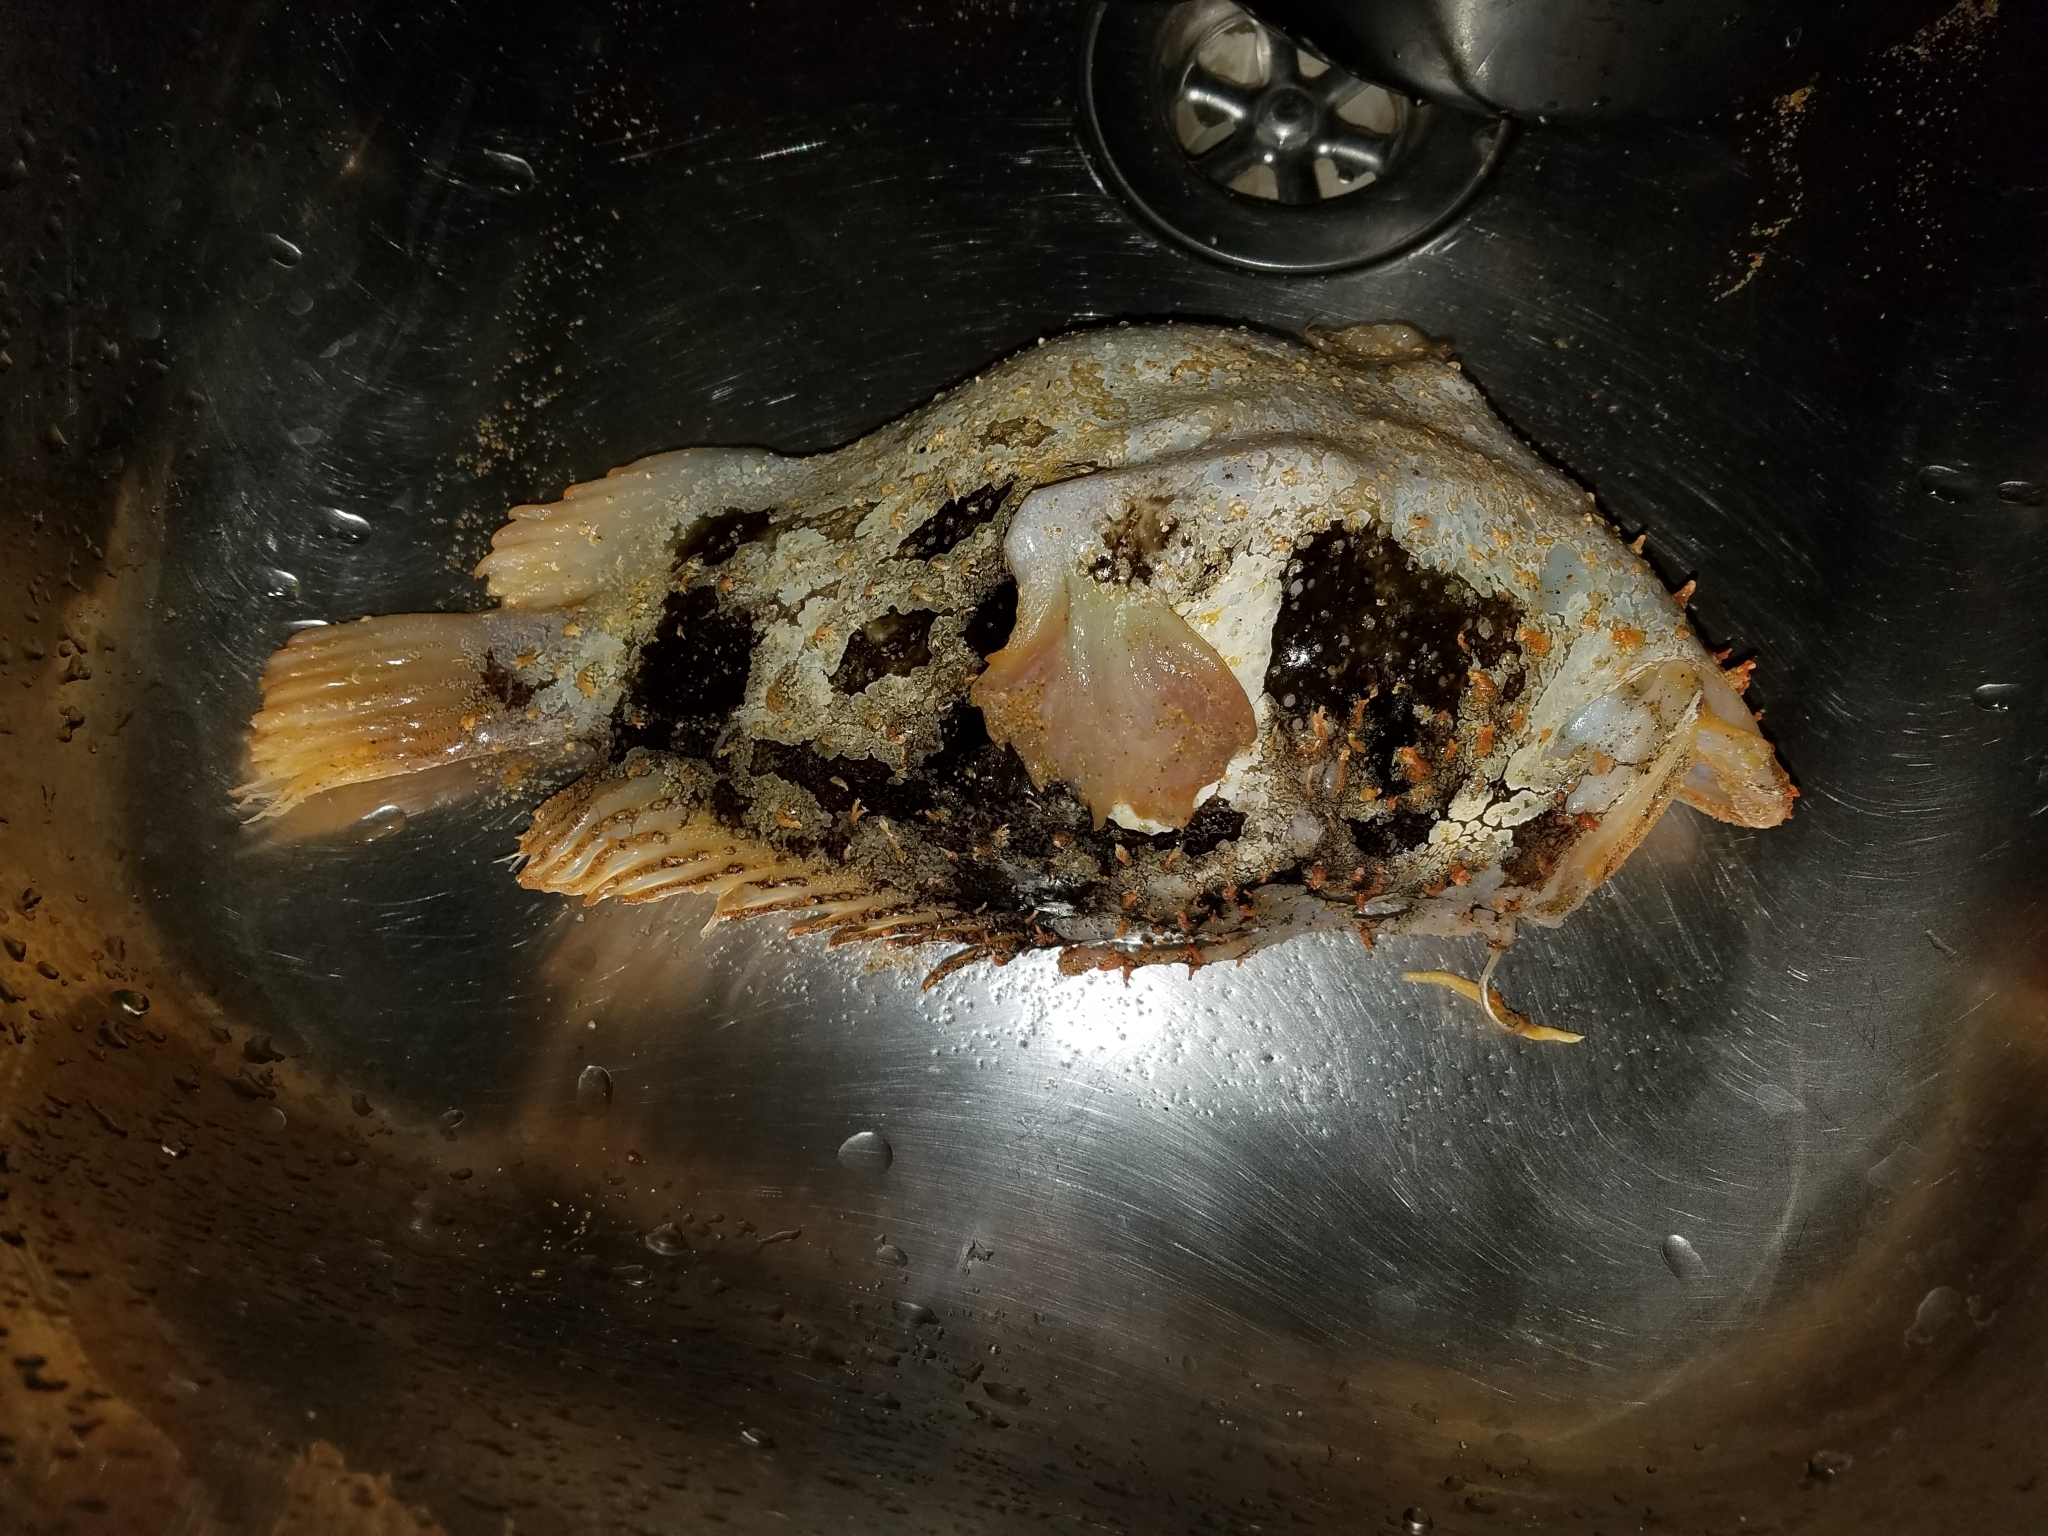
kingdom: Animalia
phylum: Chordata
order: Lophiiformes
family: Antennariidae
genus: Rhycherus
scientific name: Rhycherus filamentosus
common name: Tasselled anglerfish
